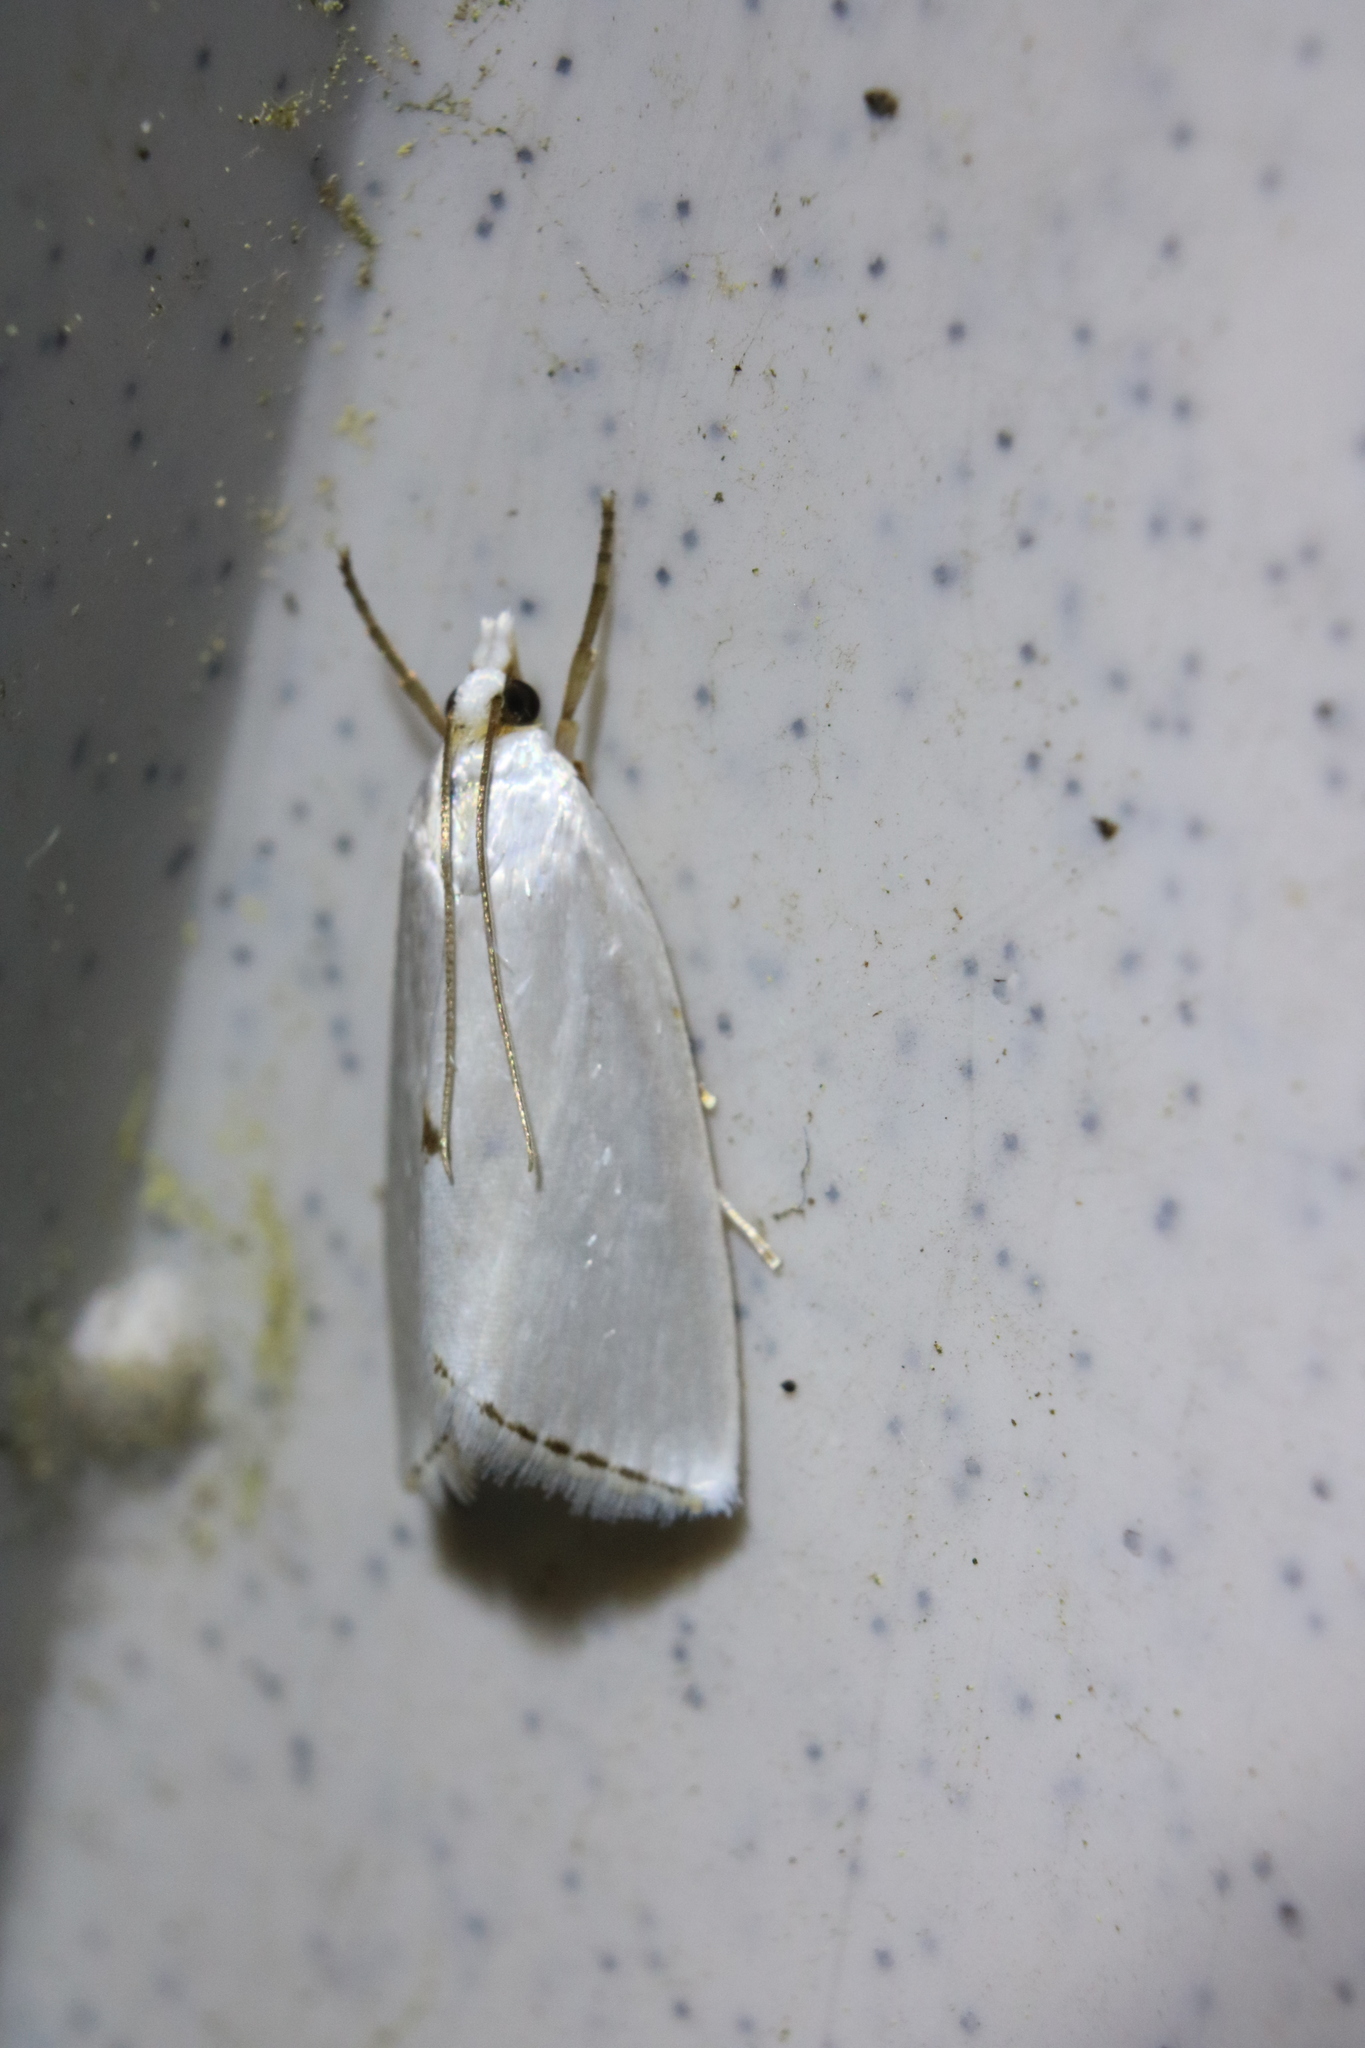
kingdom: Animalia
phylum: Arthropoda
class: Insecta
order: Lepidoptera
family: Crambidae
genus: Argyria
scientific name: Argyria nivalis
